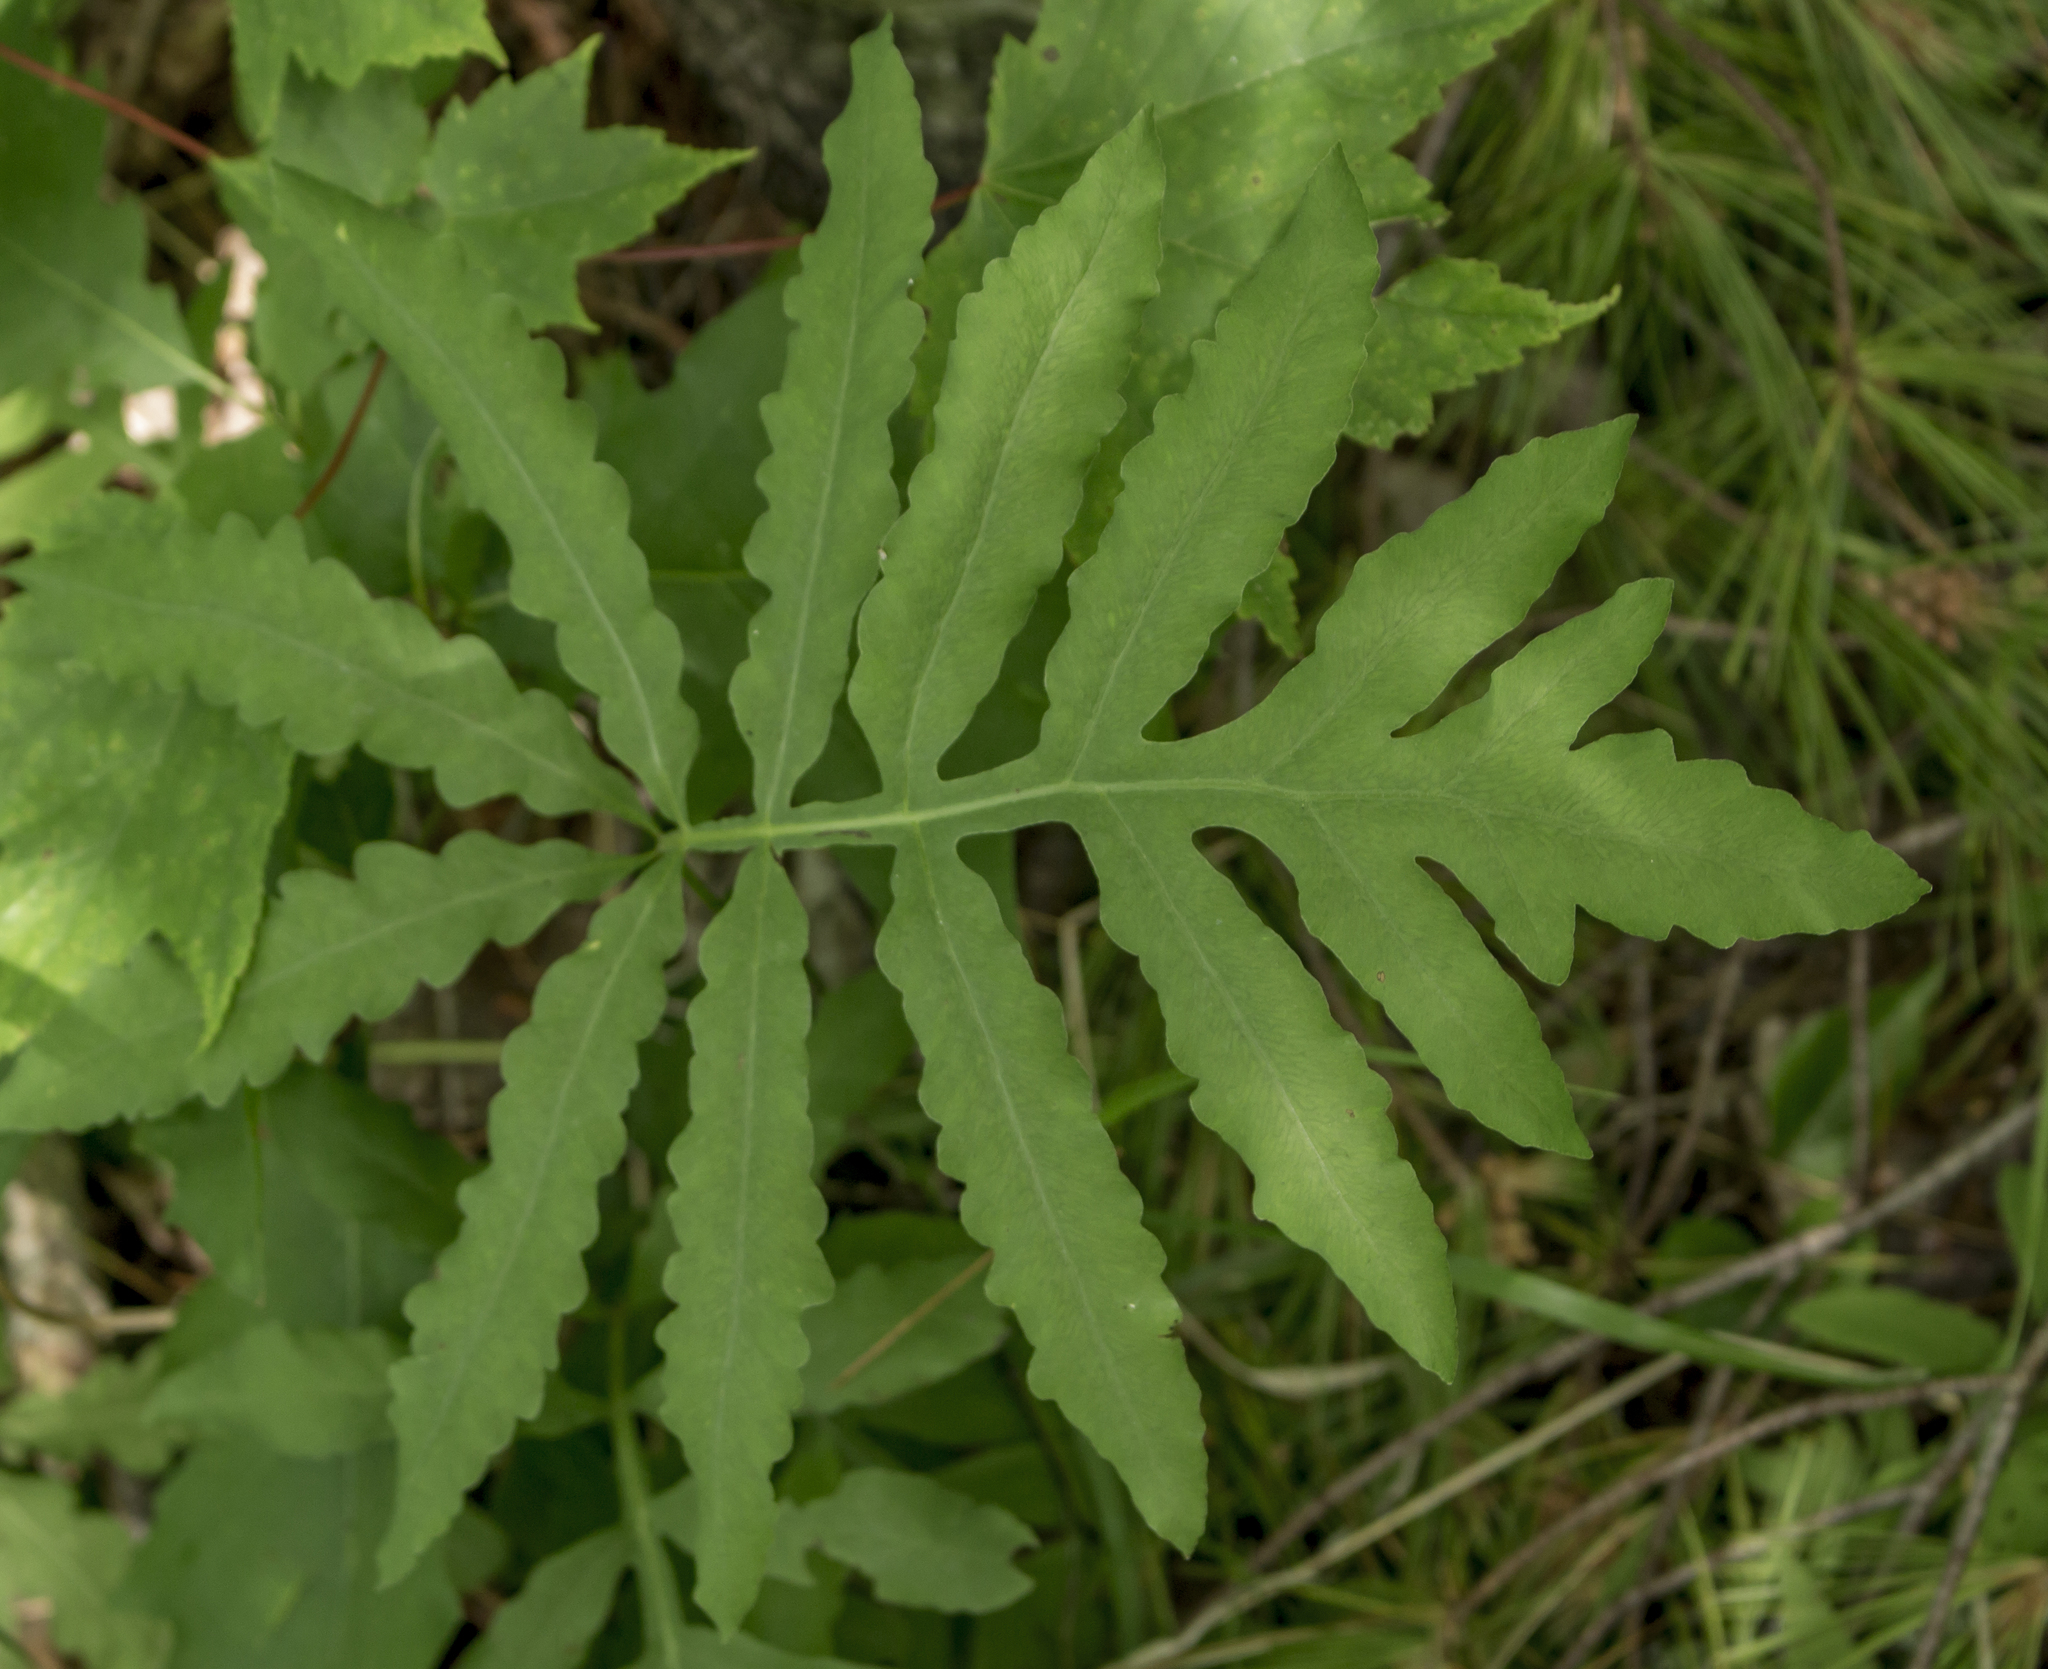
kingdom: Plantae
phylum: Tracheophyta
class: Polypodiopsida
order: Polypodiales
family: Onocleaceae
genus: Onoclea
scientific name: Onoclea sensibilis
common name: Sensitive fern
